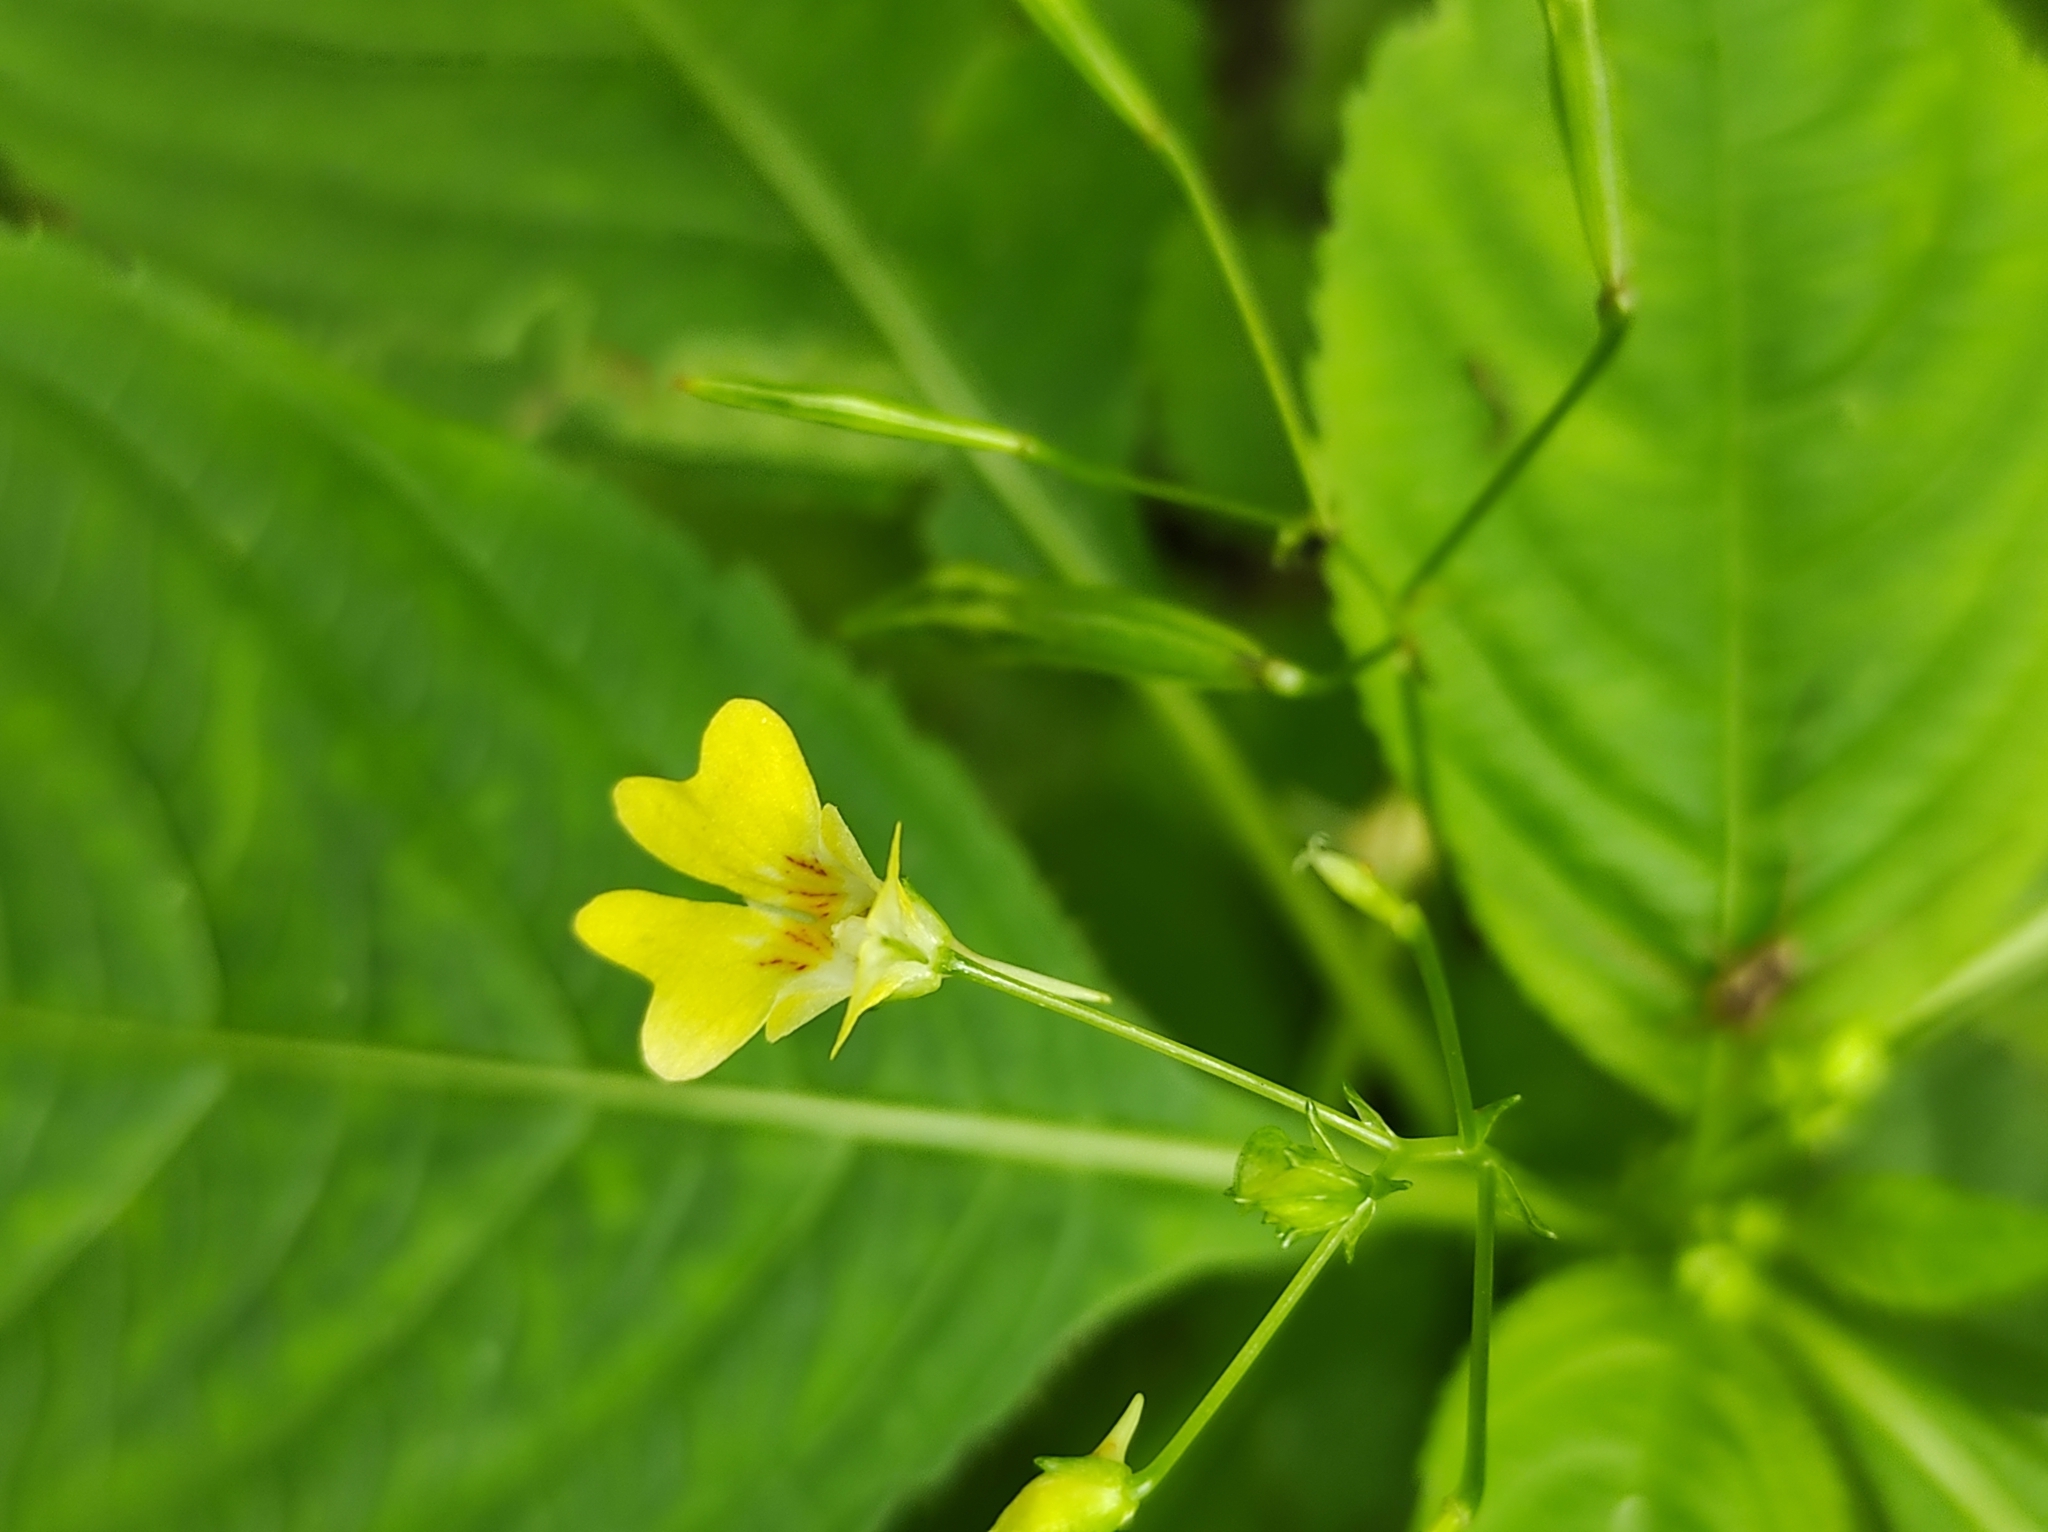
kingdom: Plantae
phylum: Tracheophyta
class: Magnoliopsida
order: Ericales
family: Balsaminaceae
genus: Impatiens
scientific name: Impatiens parviflora
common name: Small balsam
